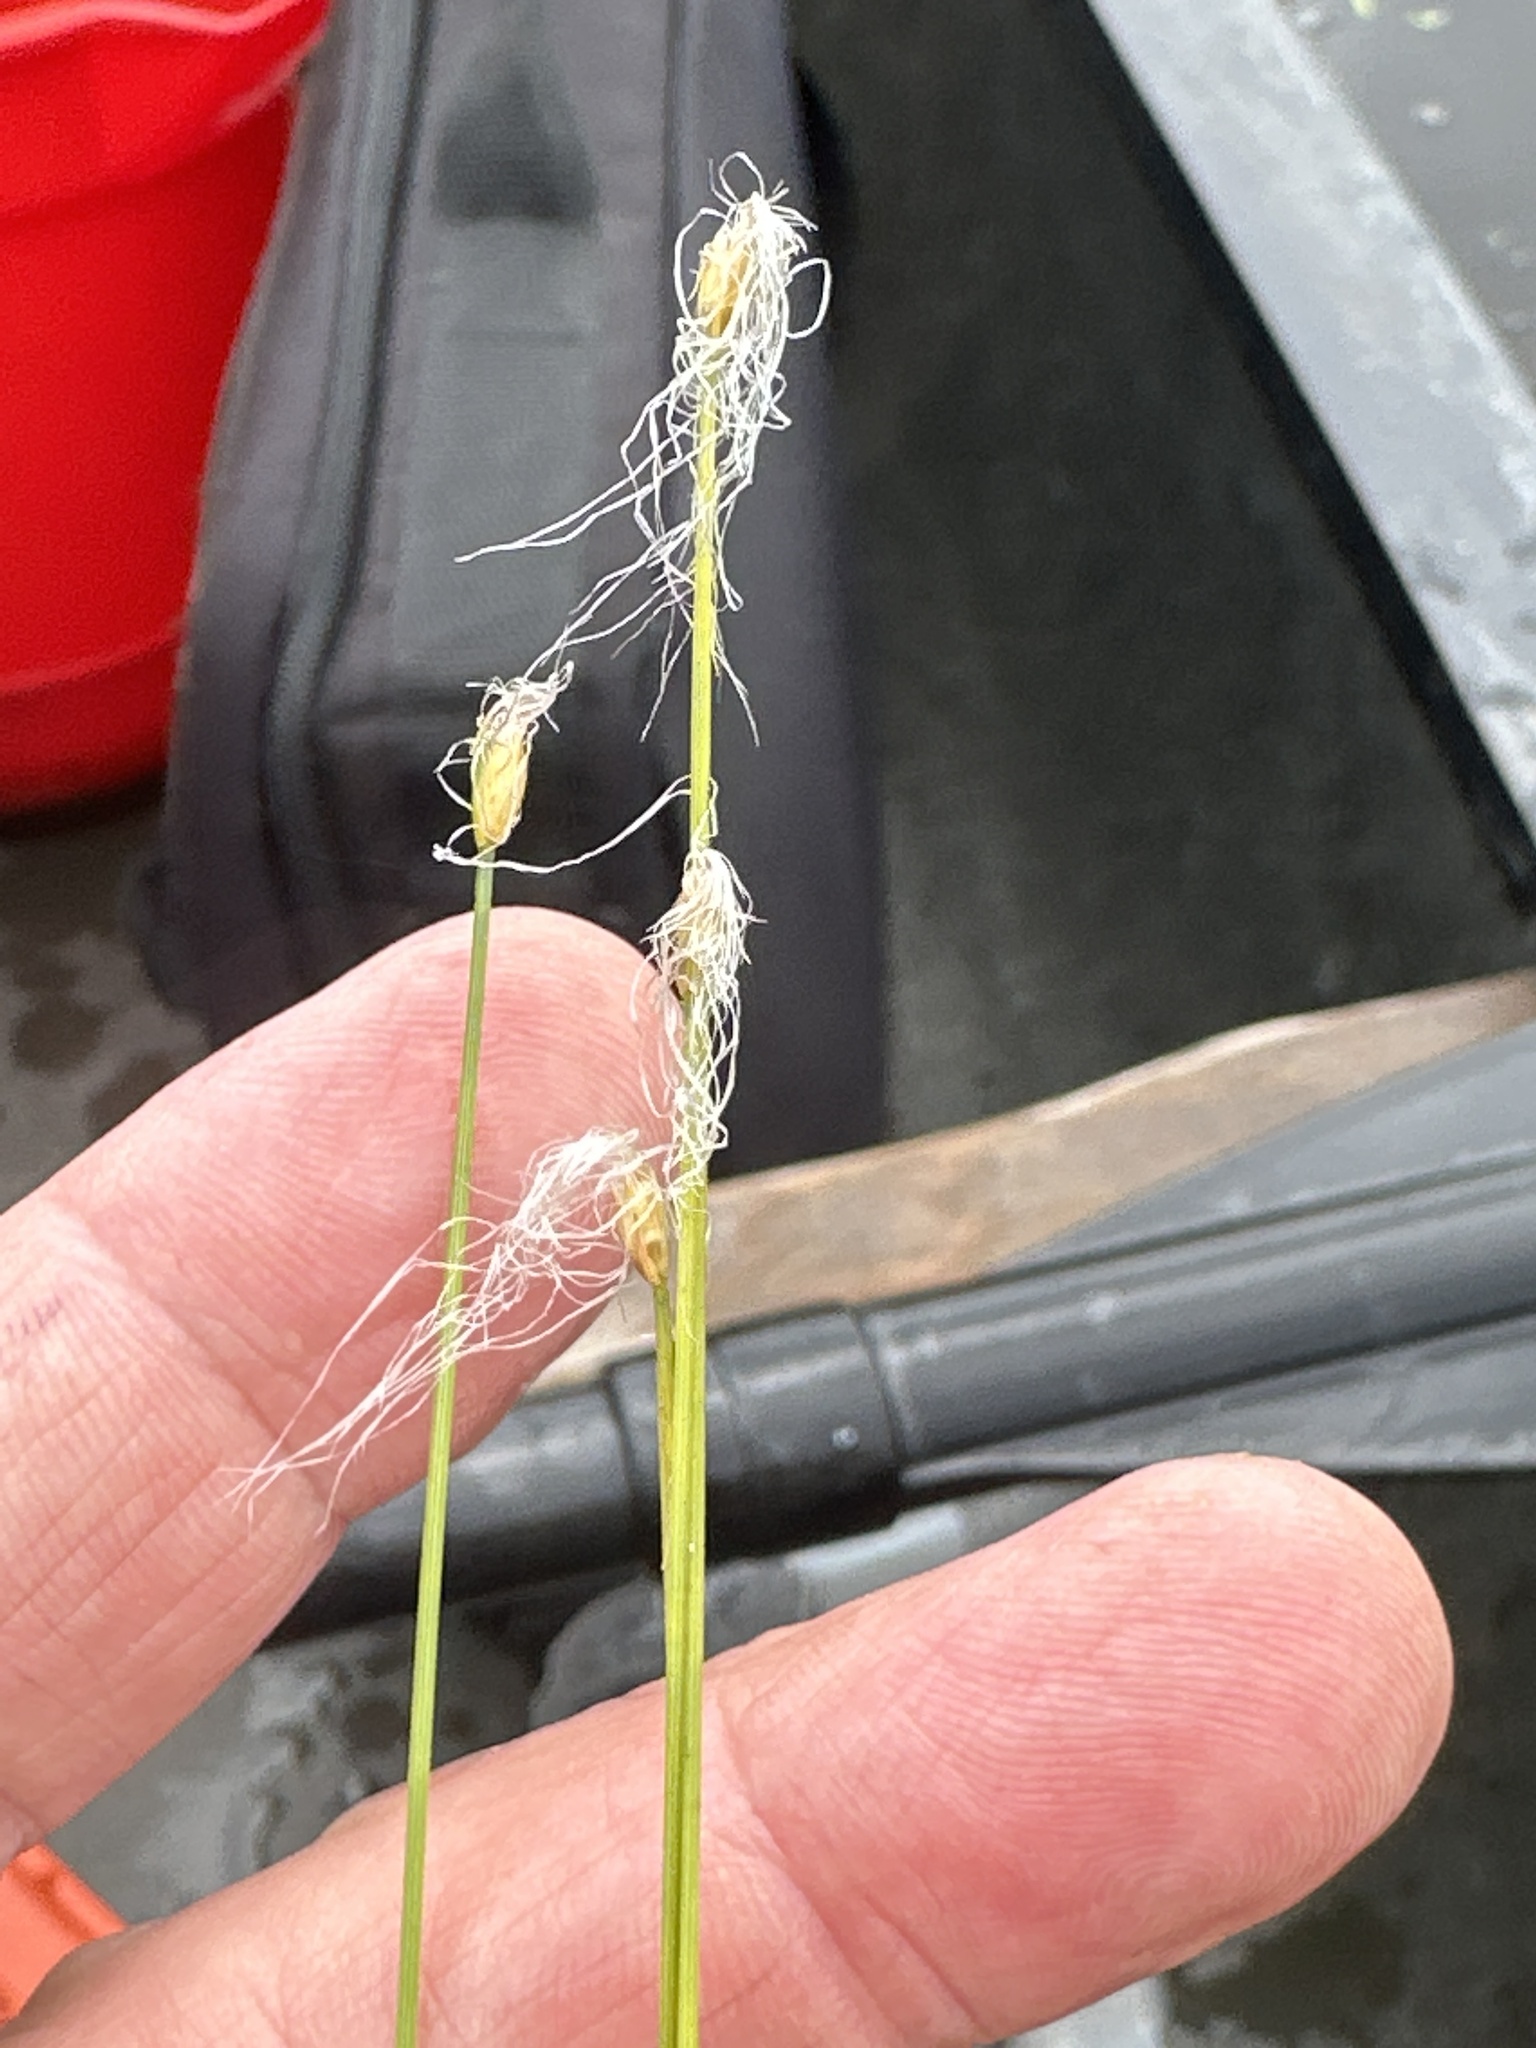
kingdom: Plantae
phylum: Tracheophyta
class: Liliopsida
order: Poales
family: Cyperaceae
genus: Trichophorum
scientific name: Trichophorum alpinum
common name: Alpine bulrush
